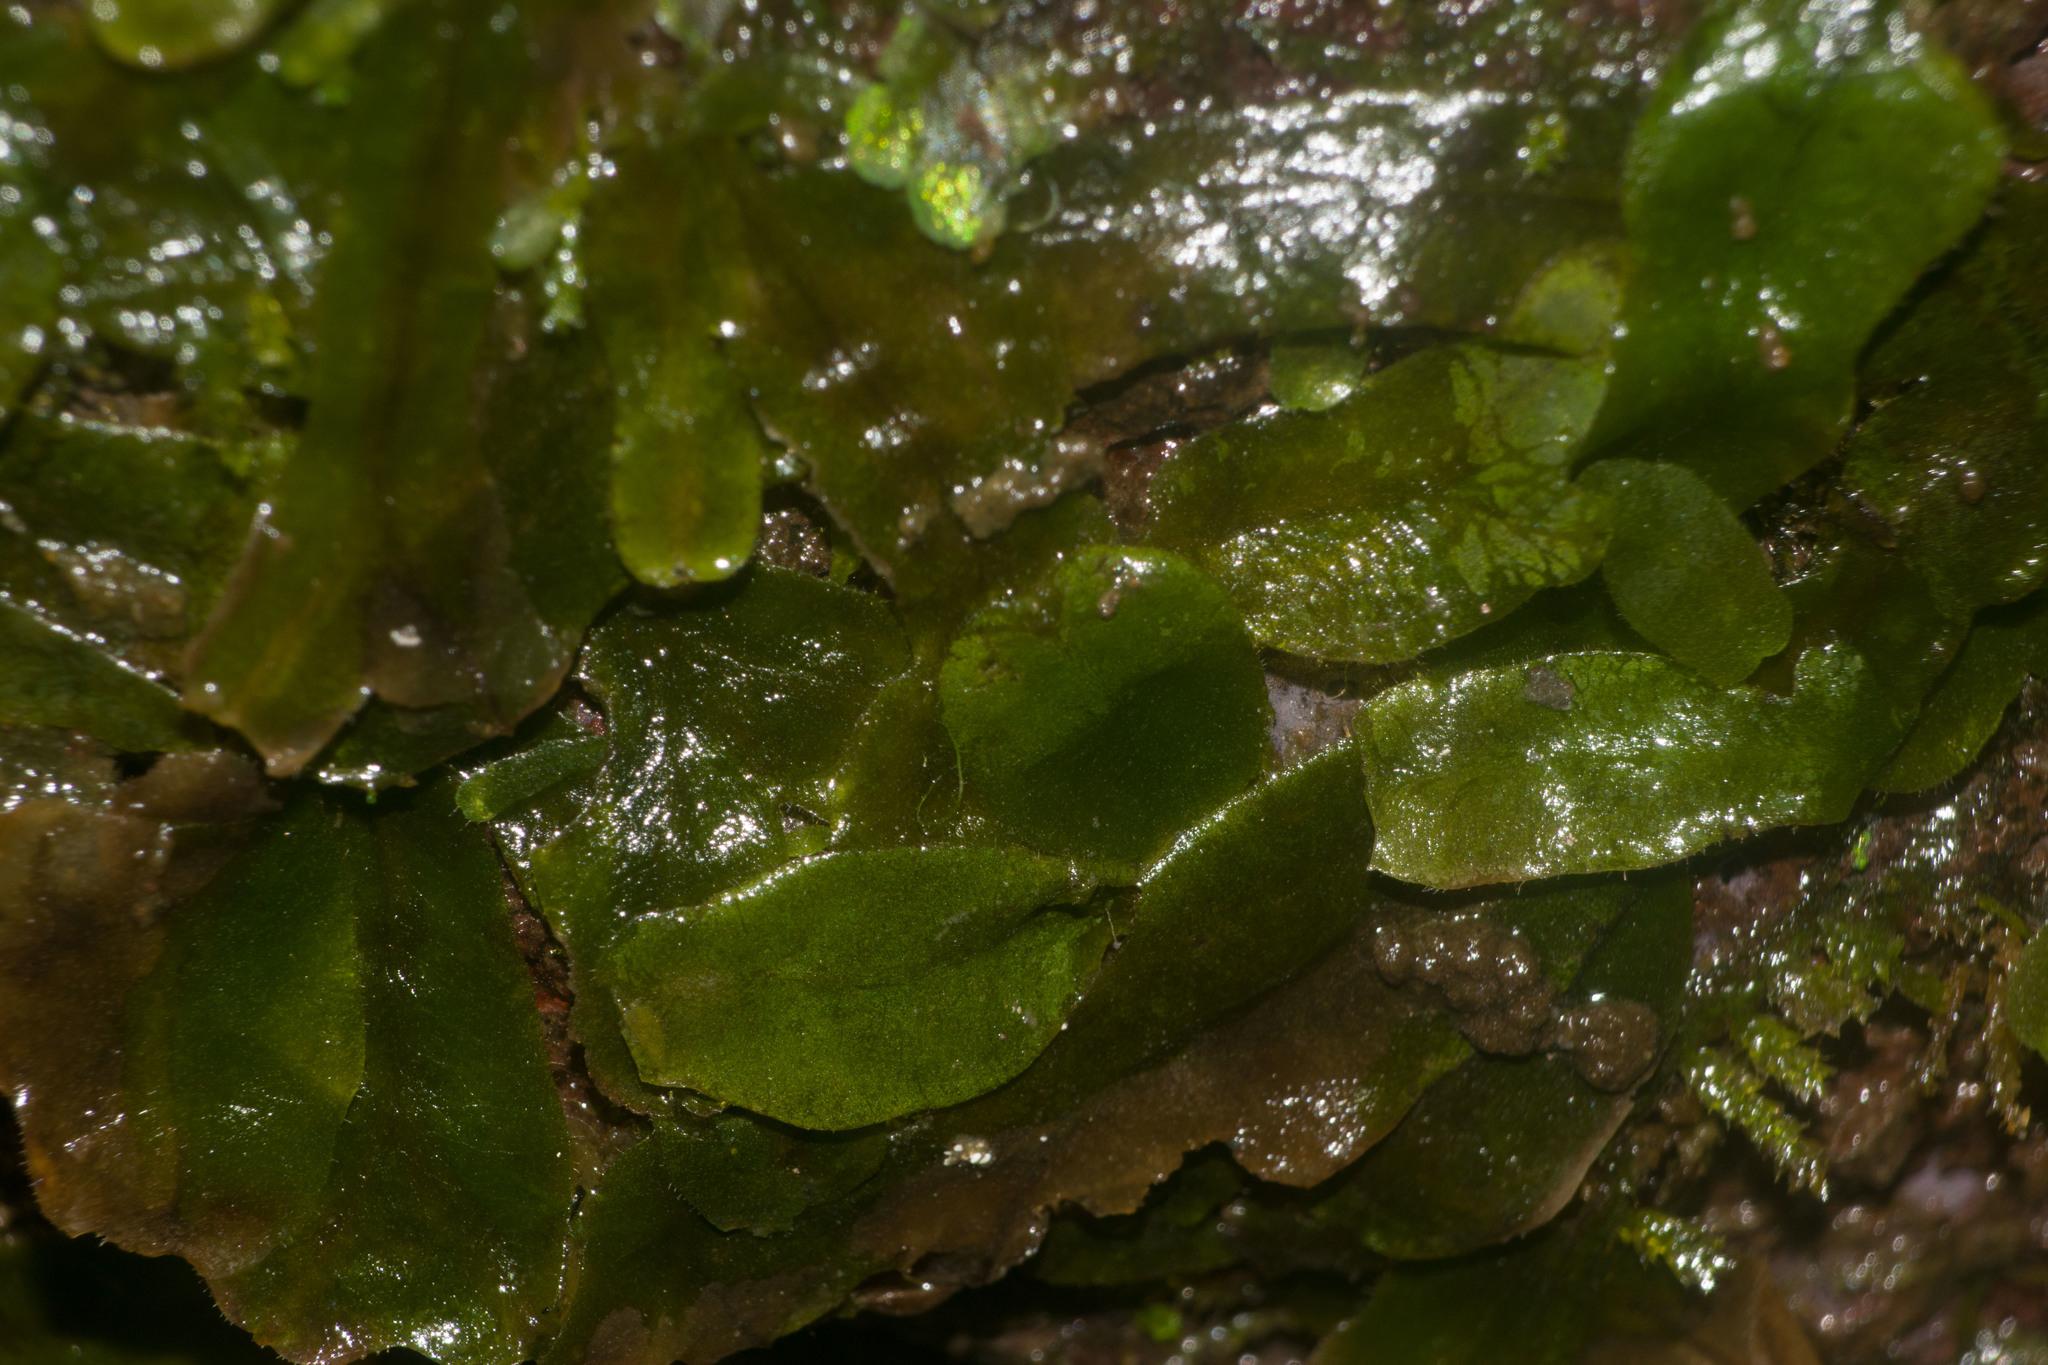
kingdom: Plantae
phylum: Marchantiophyta
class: Marchantiopsida
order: Marchantiales
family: Dumortieraceae
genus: Dumortiera
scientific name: Dumortiera hirsuta
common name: Dumortier's liverwort
